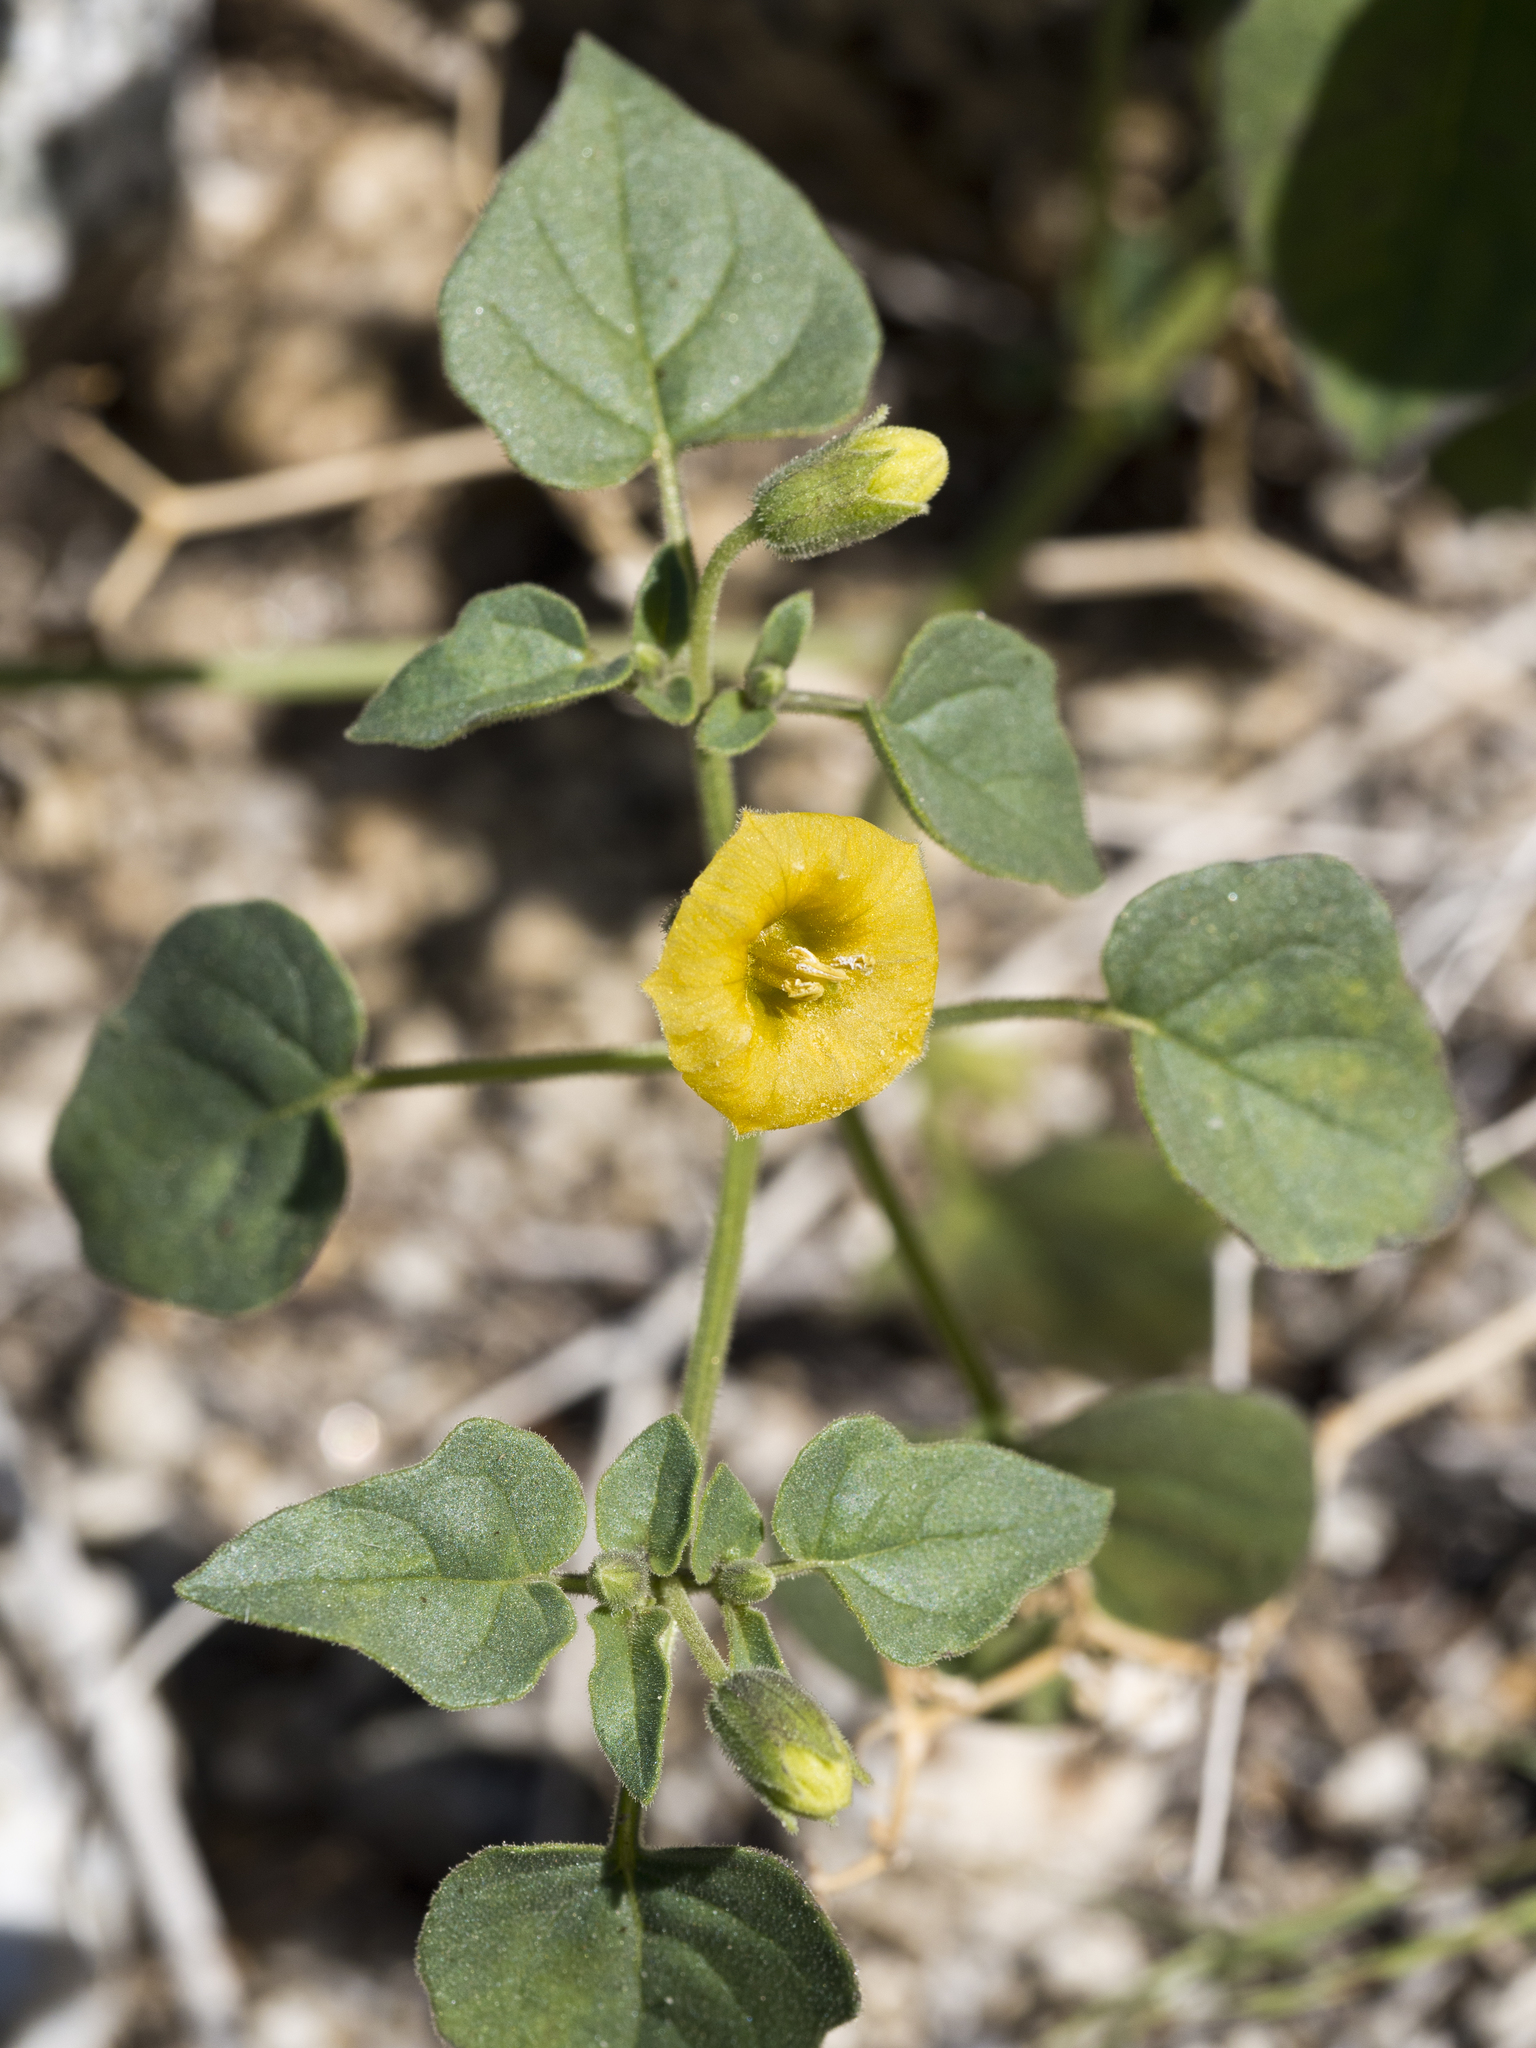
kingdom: Plantae
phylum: Tracheophyta
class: Magnoliopsida
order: Solanales
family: Solanaceae
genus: Physalis
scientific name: Physalis crassifolia
